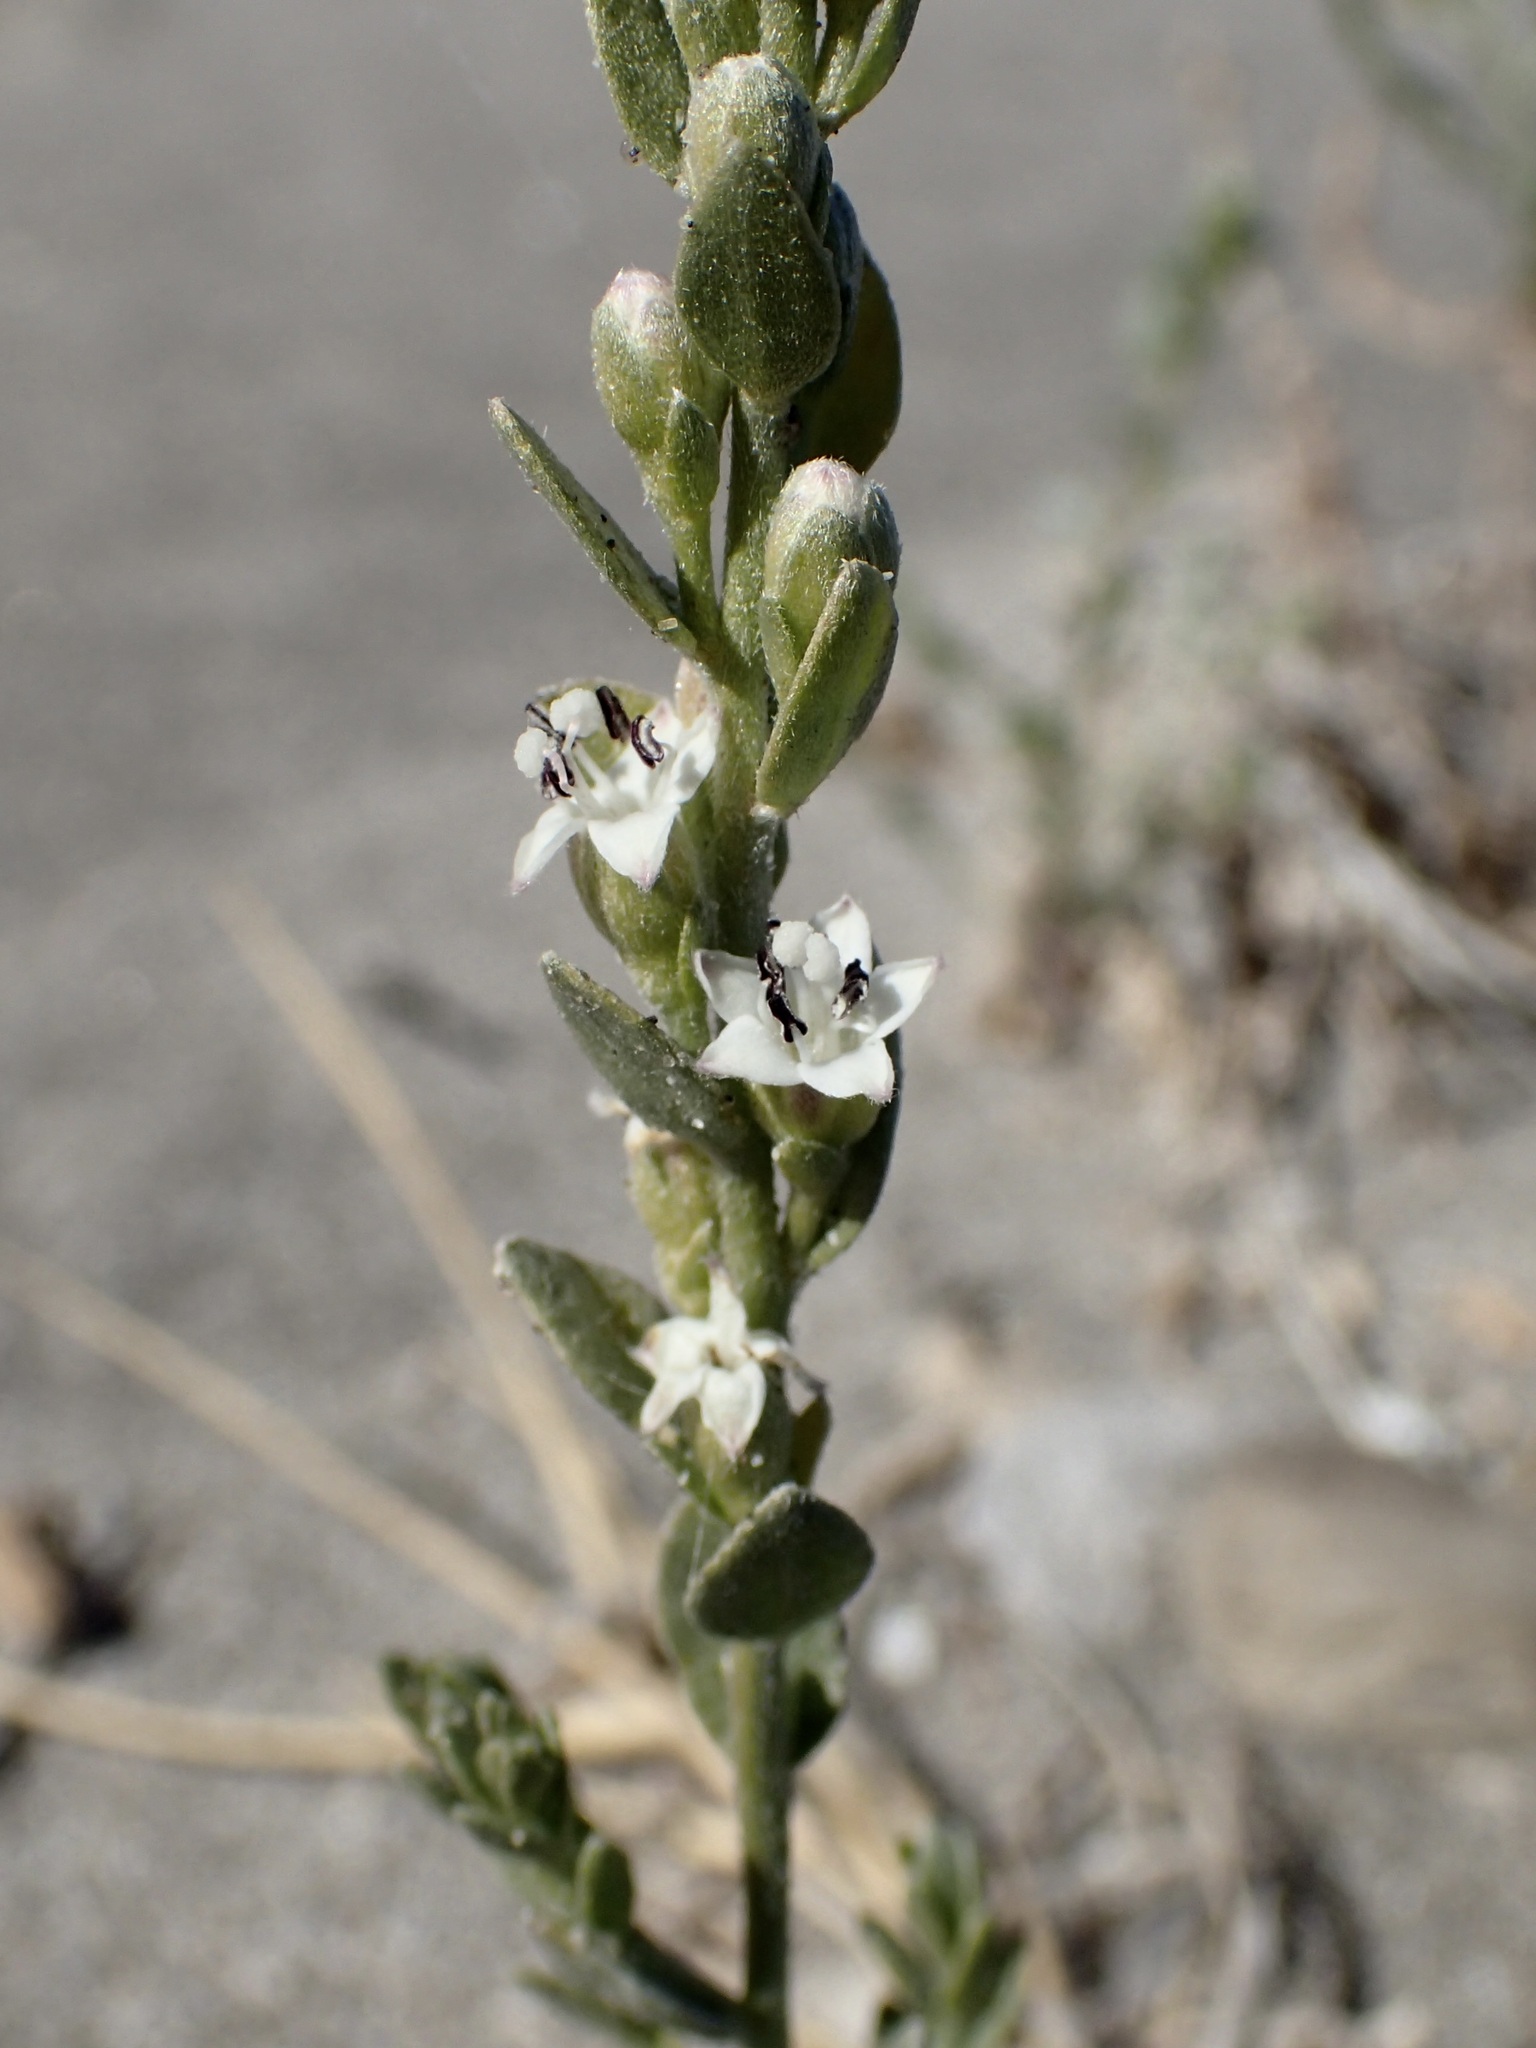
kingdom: Plantae
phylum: Tracheophyta
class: Magnoliopsida
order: Solanales
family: Convolvulaceae
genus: Cressa
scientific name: Cressa truxillensis
